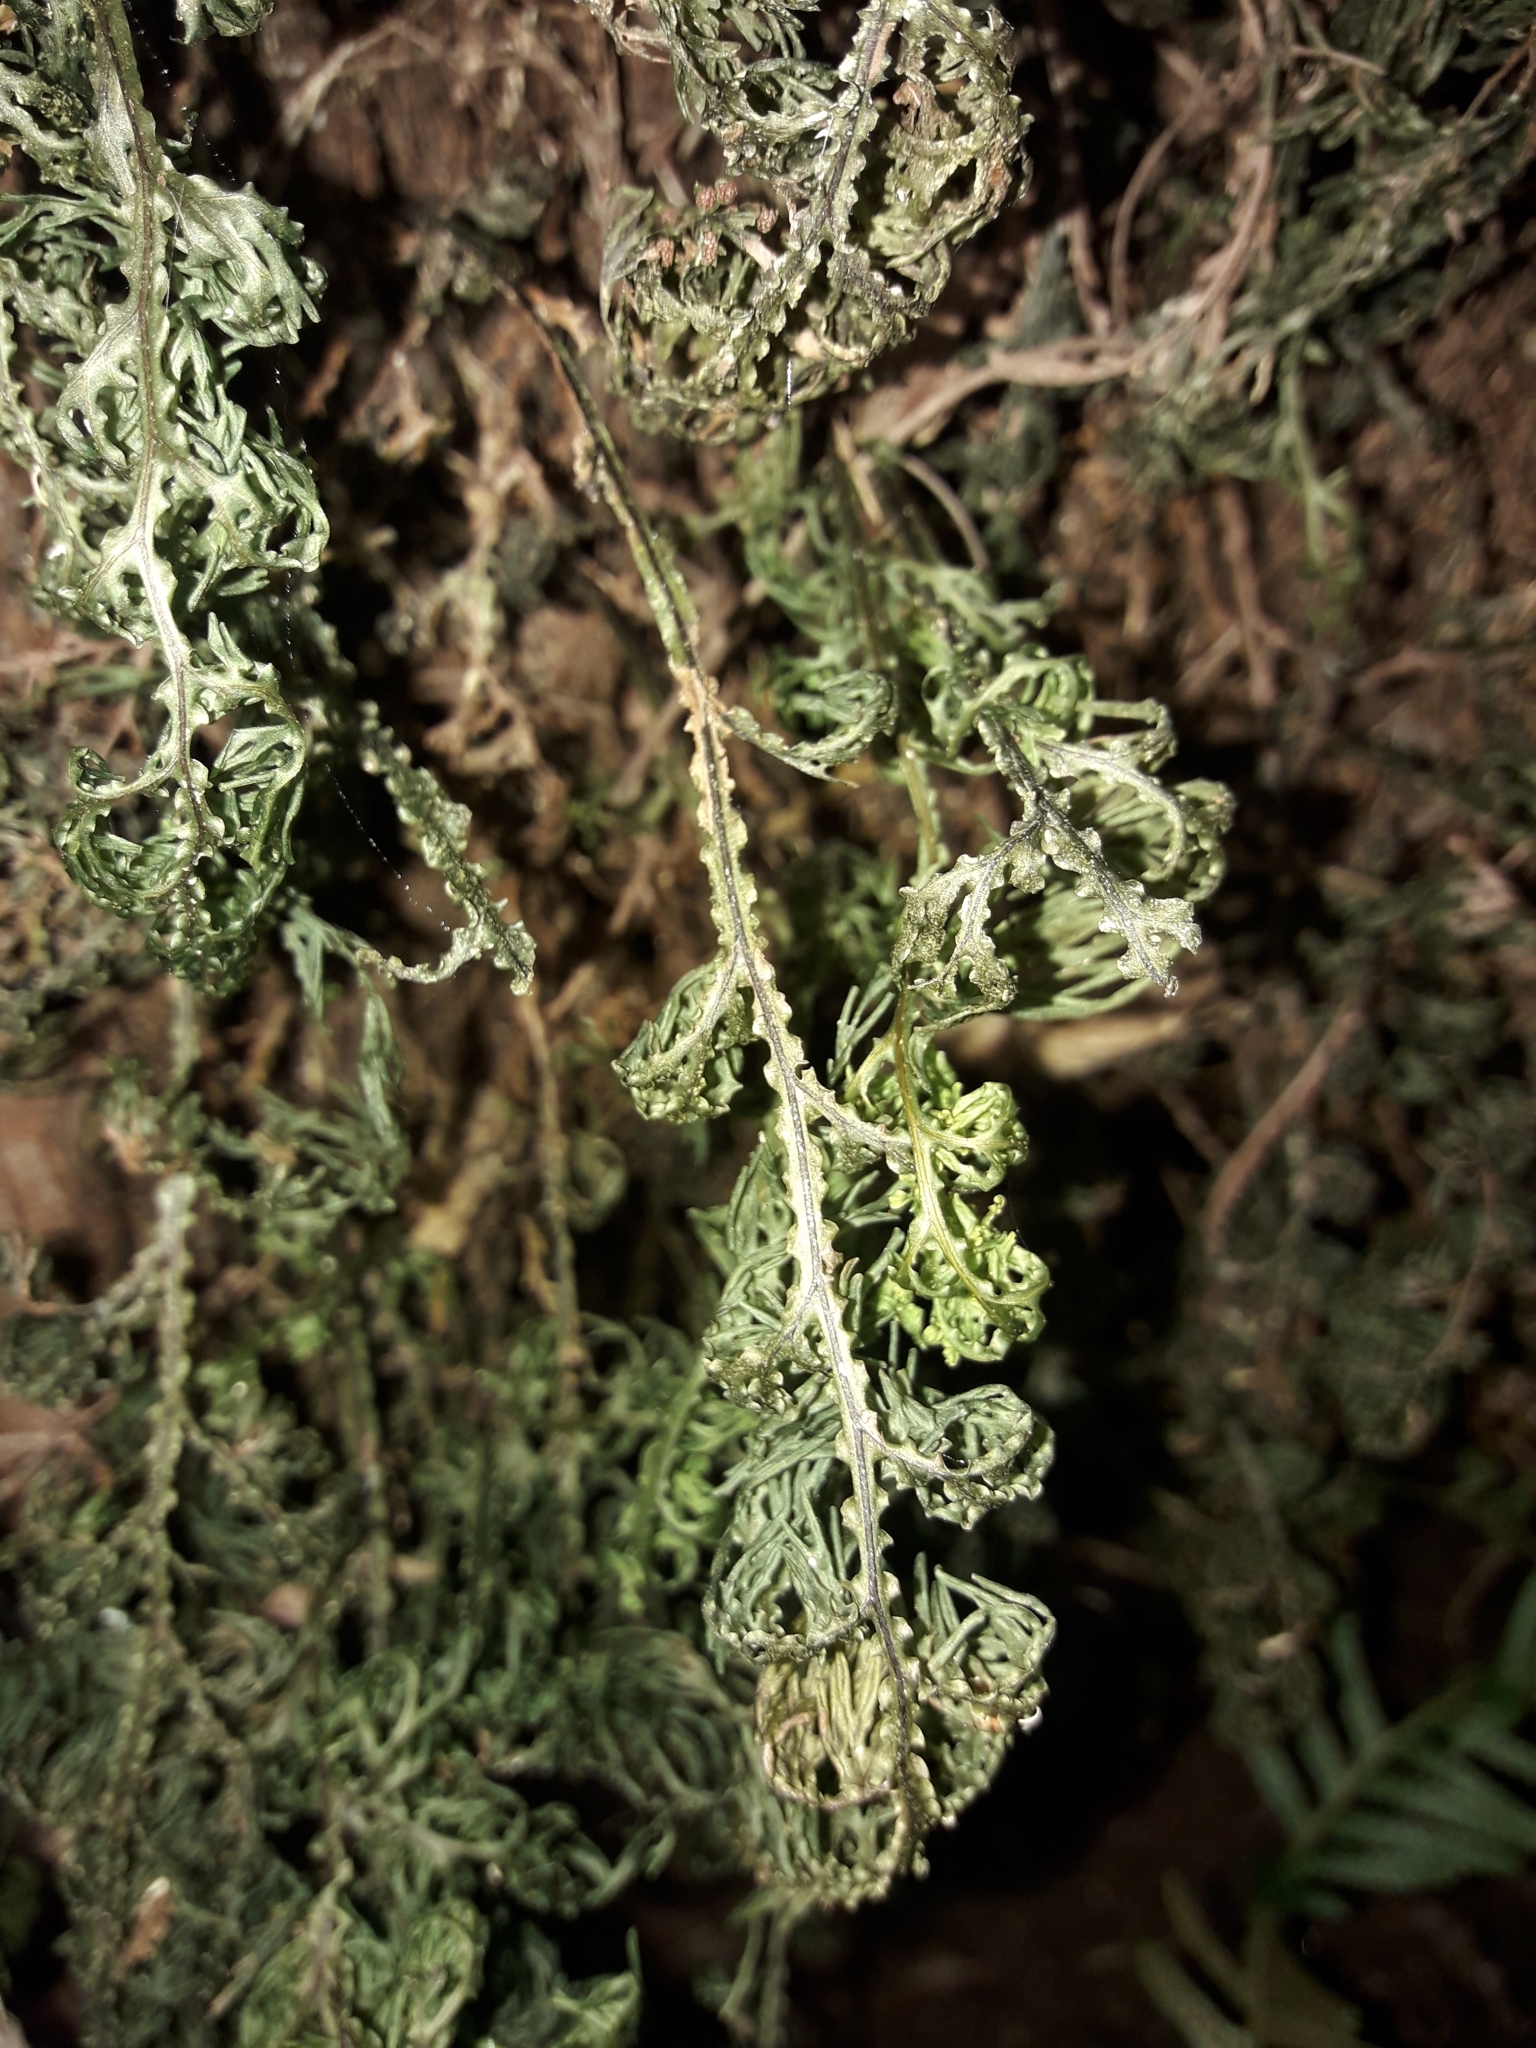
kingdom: Plantae
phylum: Tracheophyta
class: Polypodiopsida
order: Hymenophyllales
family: Hymenophyllaceae
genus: Hymenophyllum
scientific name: Hymenophyllum flexuosum
